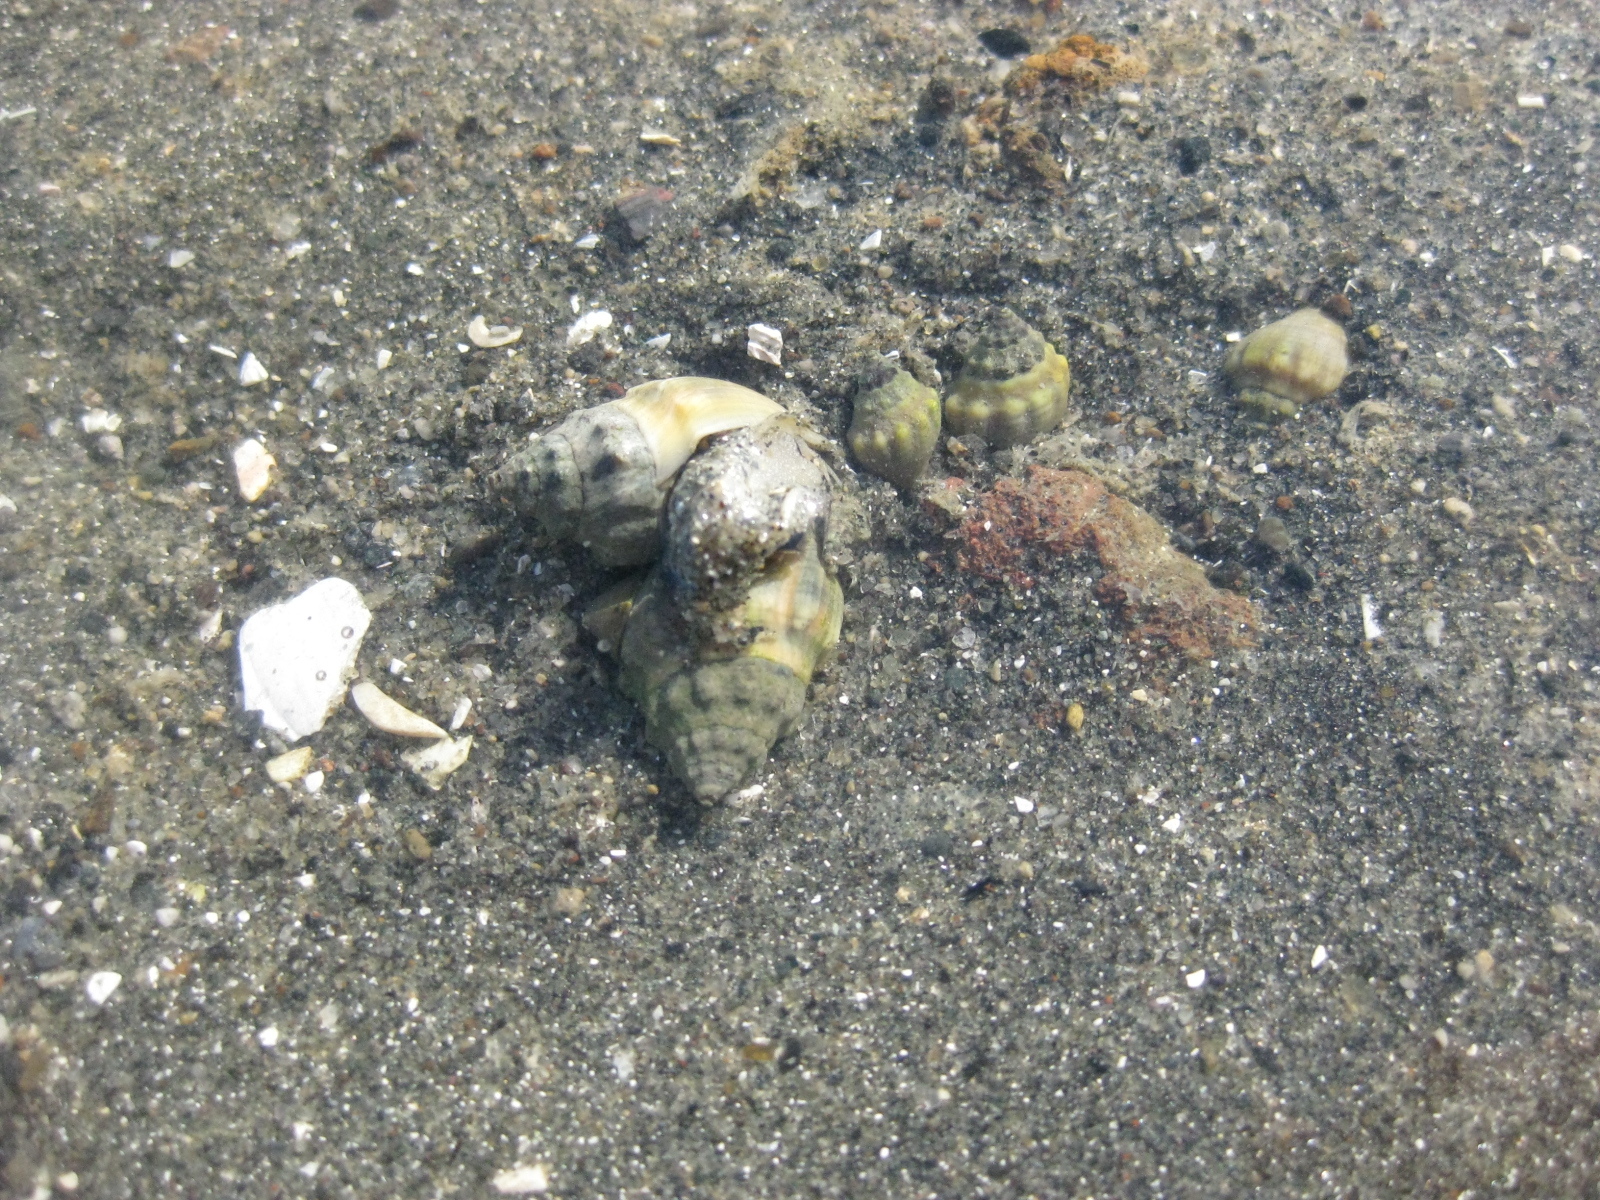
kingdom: Animalia
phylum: Mollusca
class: Gastropoda
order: Neogastropoda
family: Cominellidae
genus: Cominella
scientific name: Cominella glandiformis
